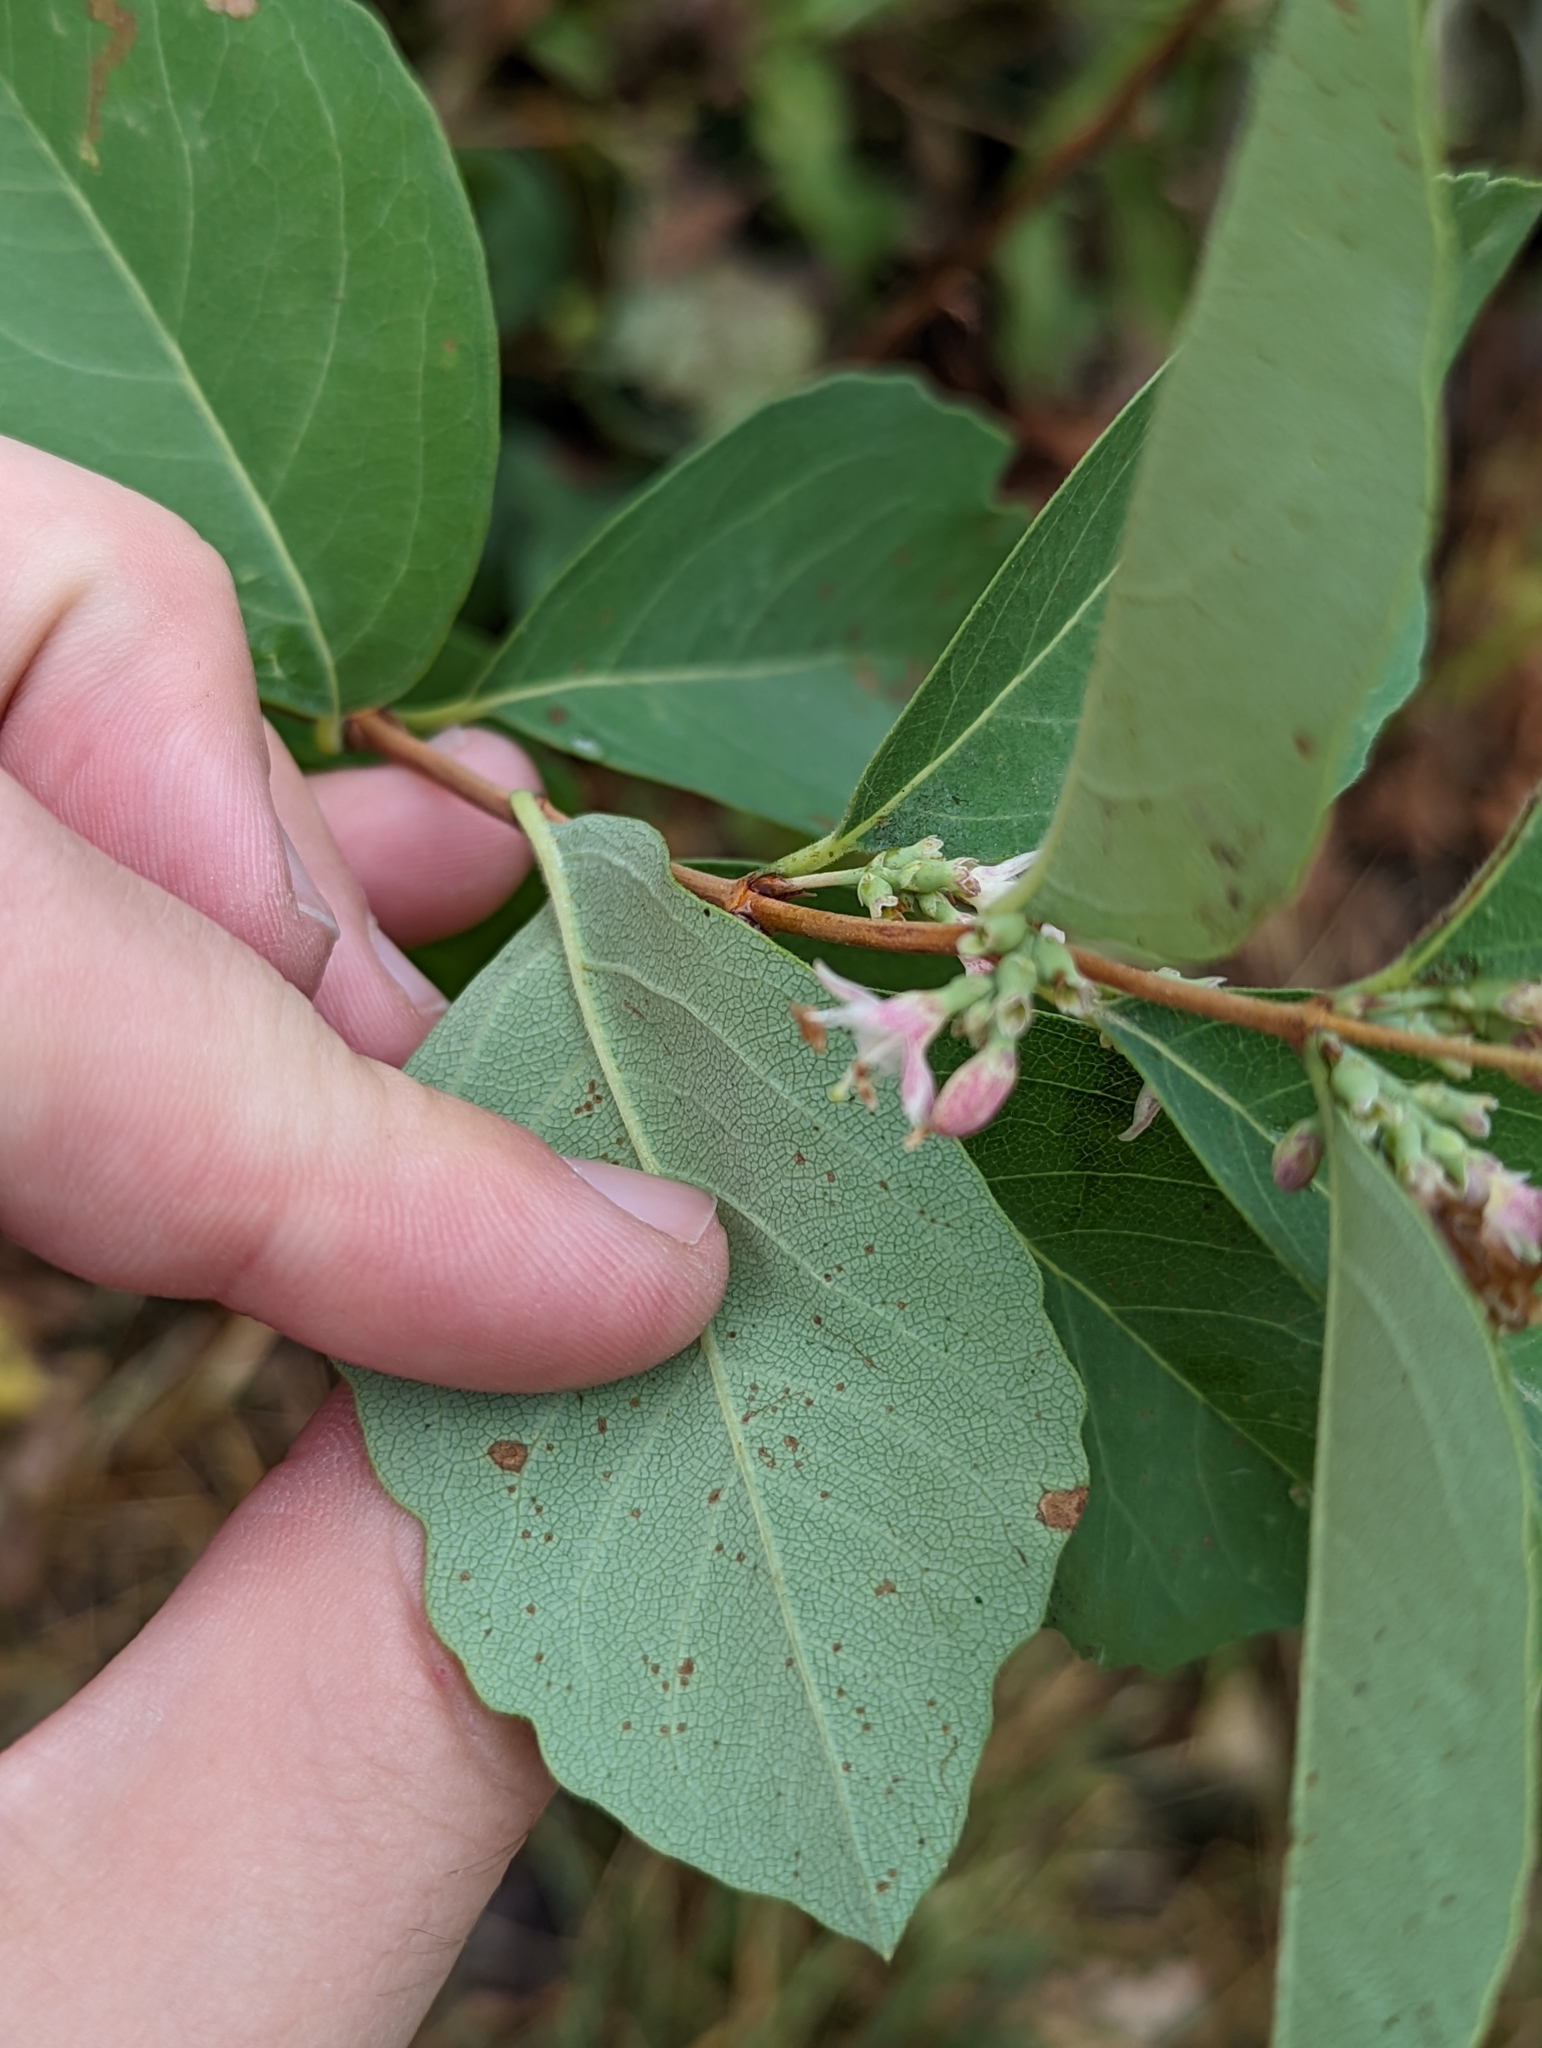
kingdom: Plantae
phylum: Tracheophyta
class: Magnoliopsida
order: Dipsacales
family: Caprifoliaceae
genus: Symphoricarpos
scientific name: Symphoricarpos occidentalis
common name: Wolfberry
